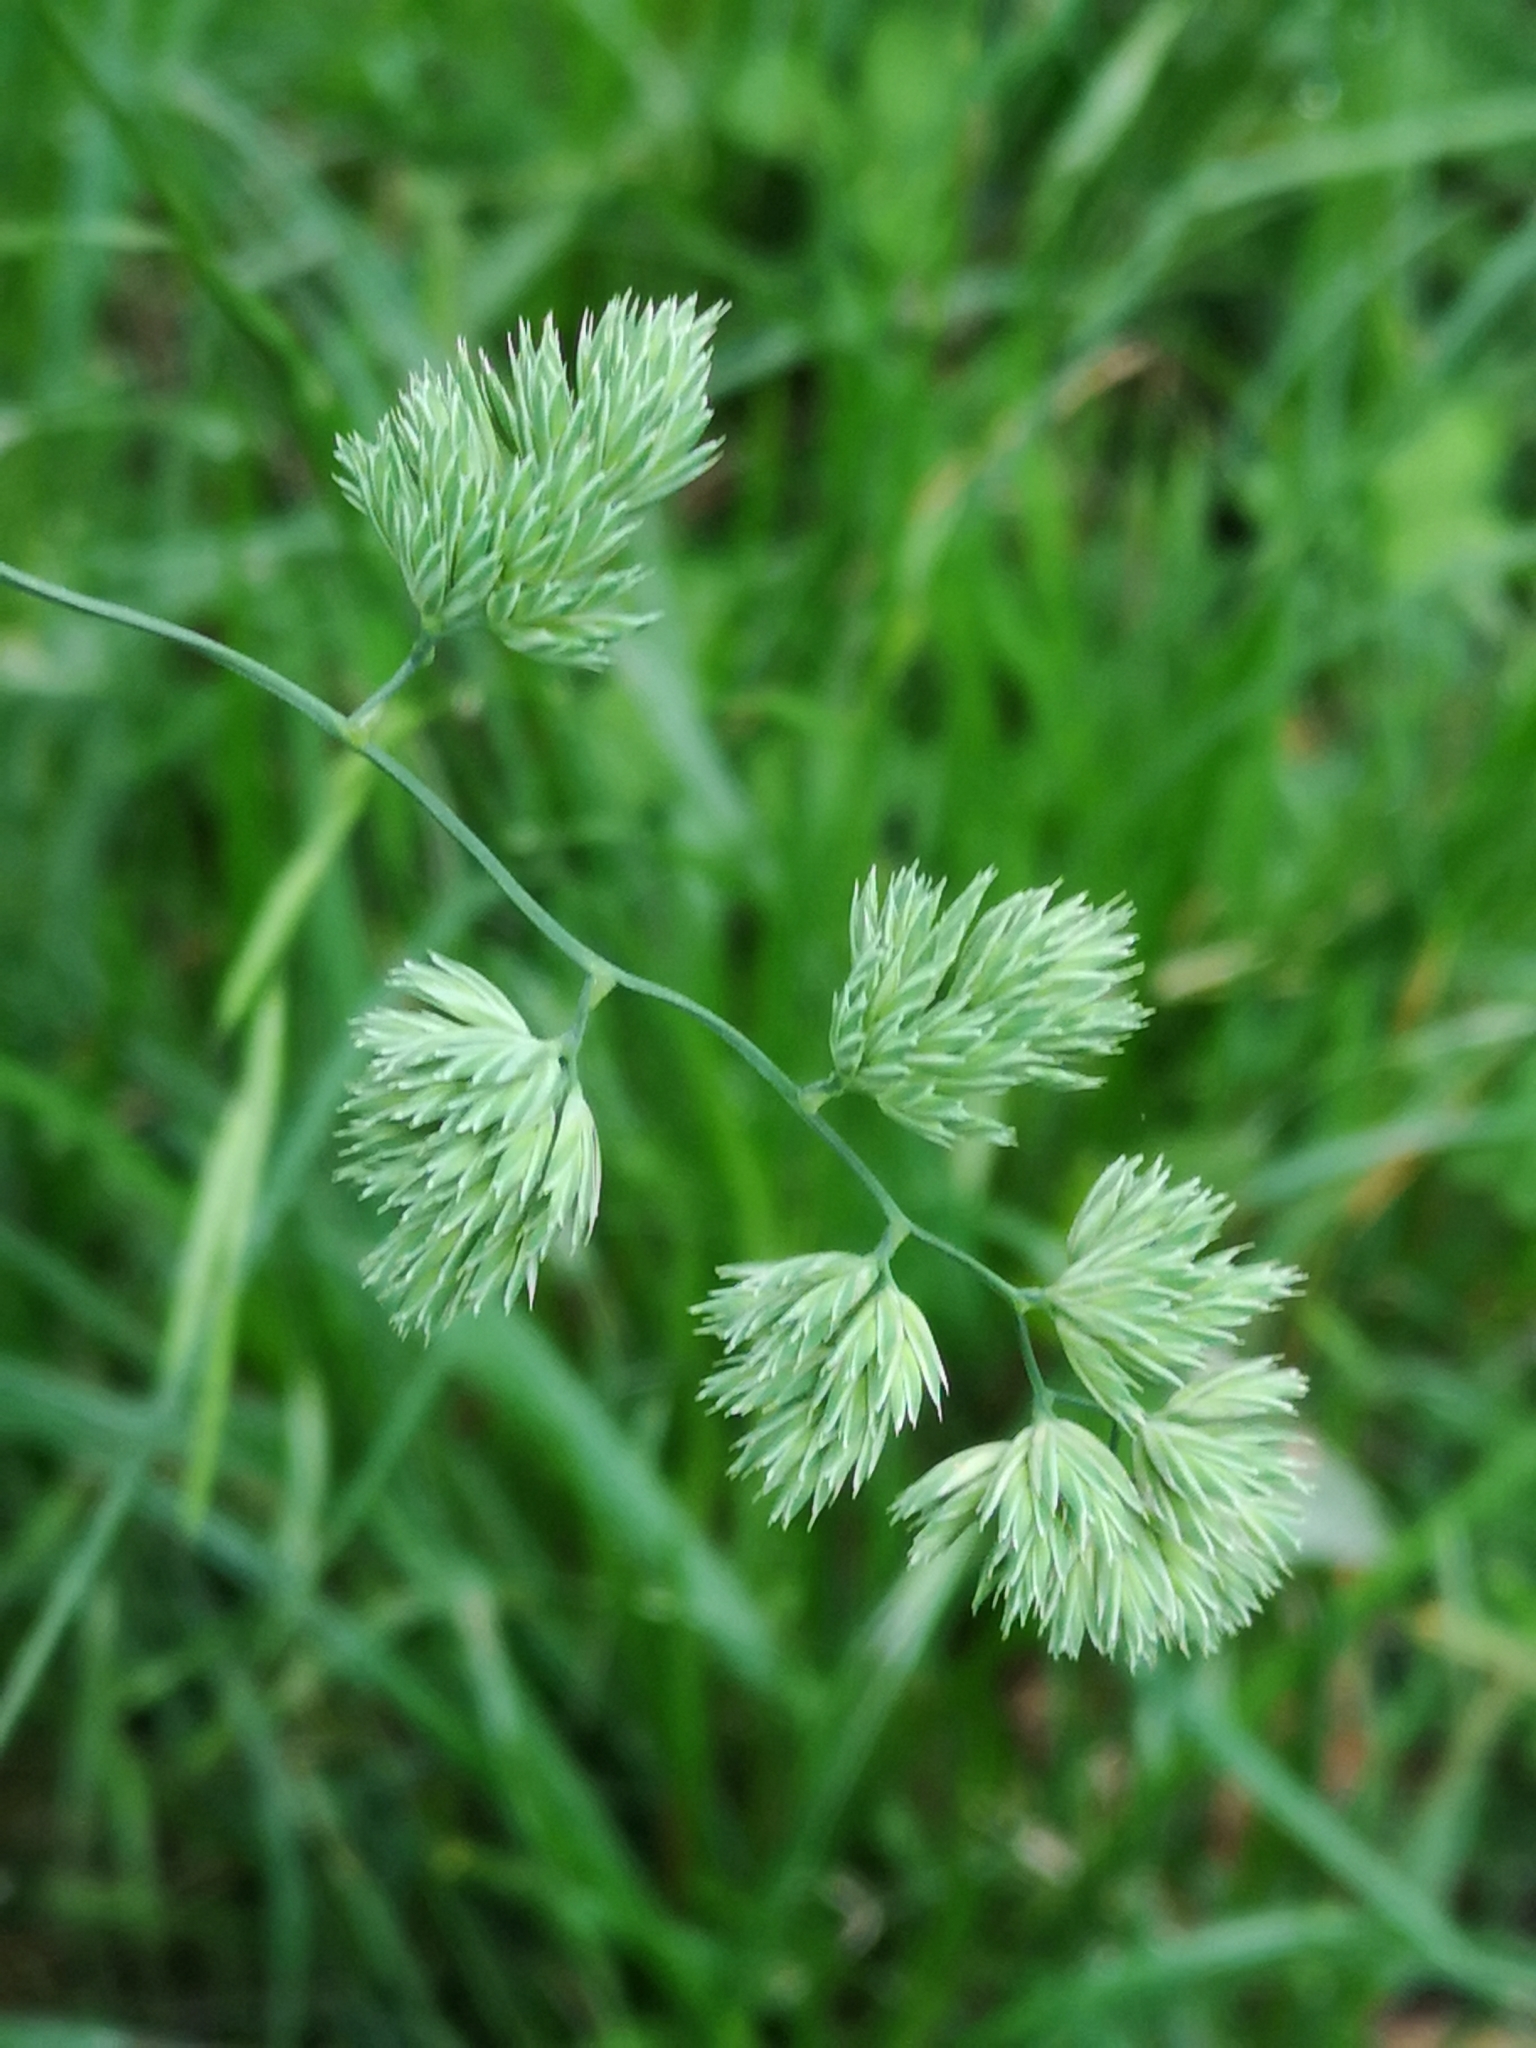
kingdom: Plantae
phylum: Tracheophyta
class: Liliopsida
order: Poales
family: Poaceae
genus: Dactylis
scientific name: Dactylis glomerata
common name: Orchardgrass
